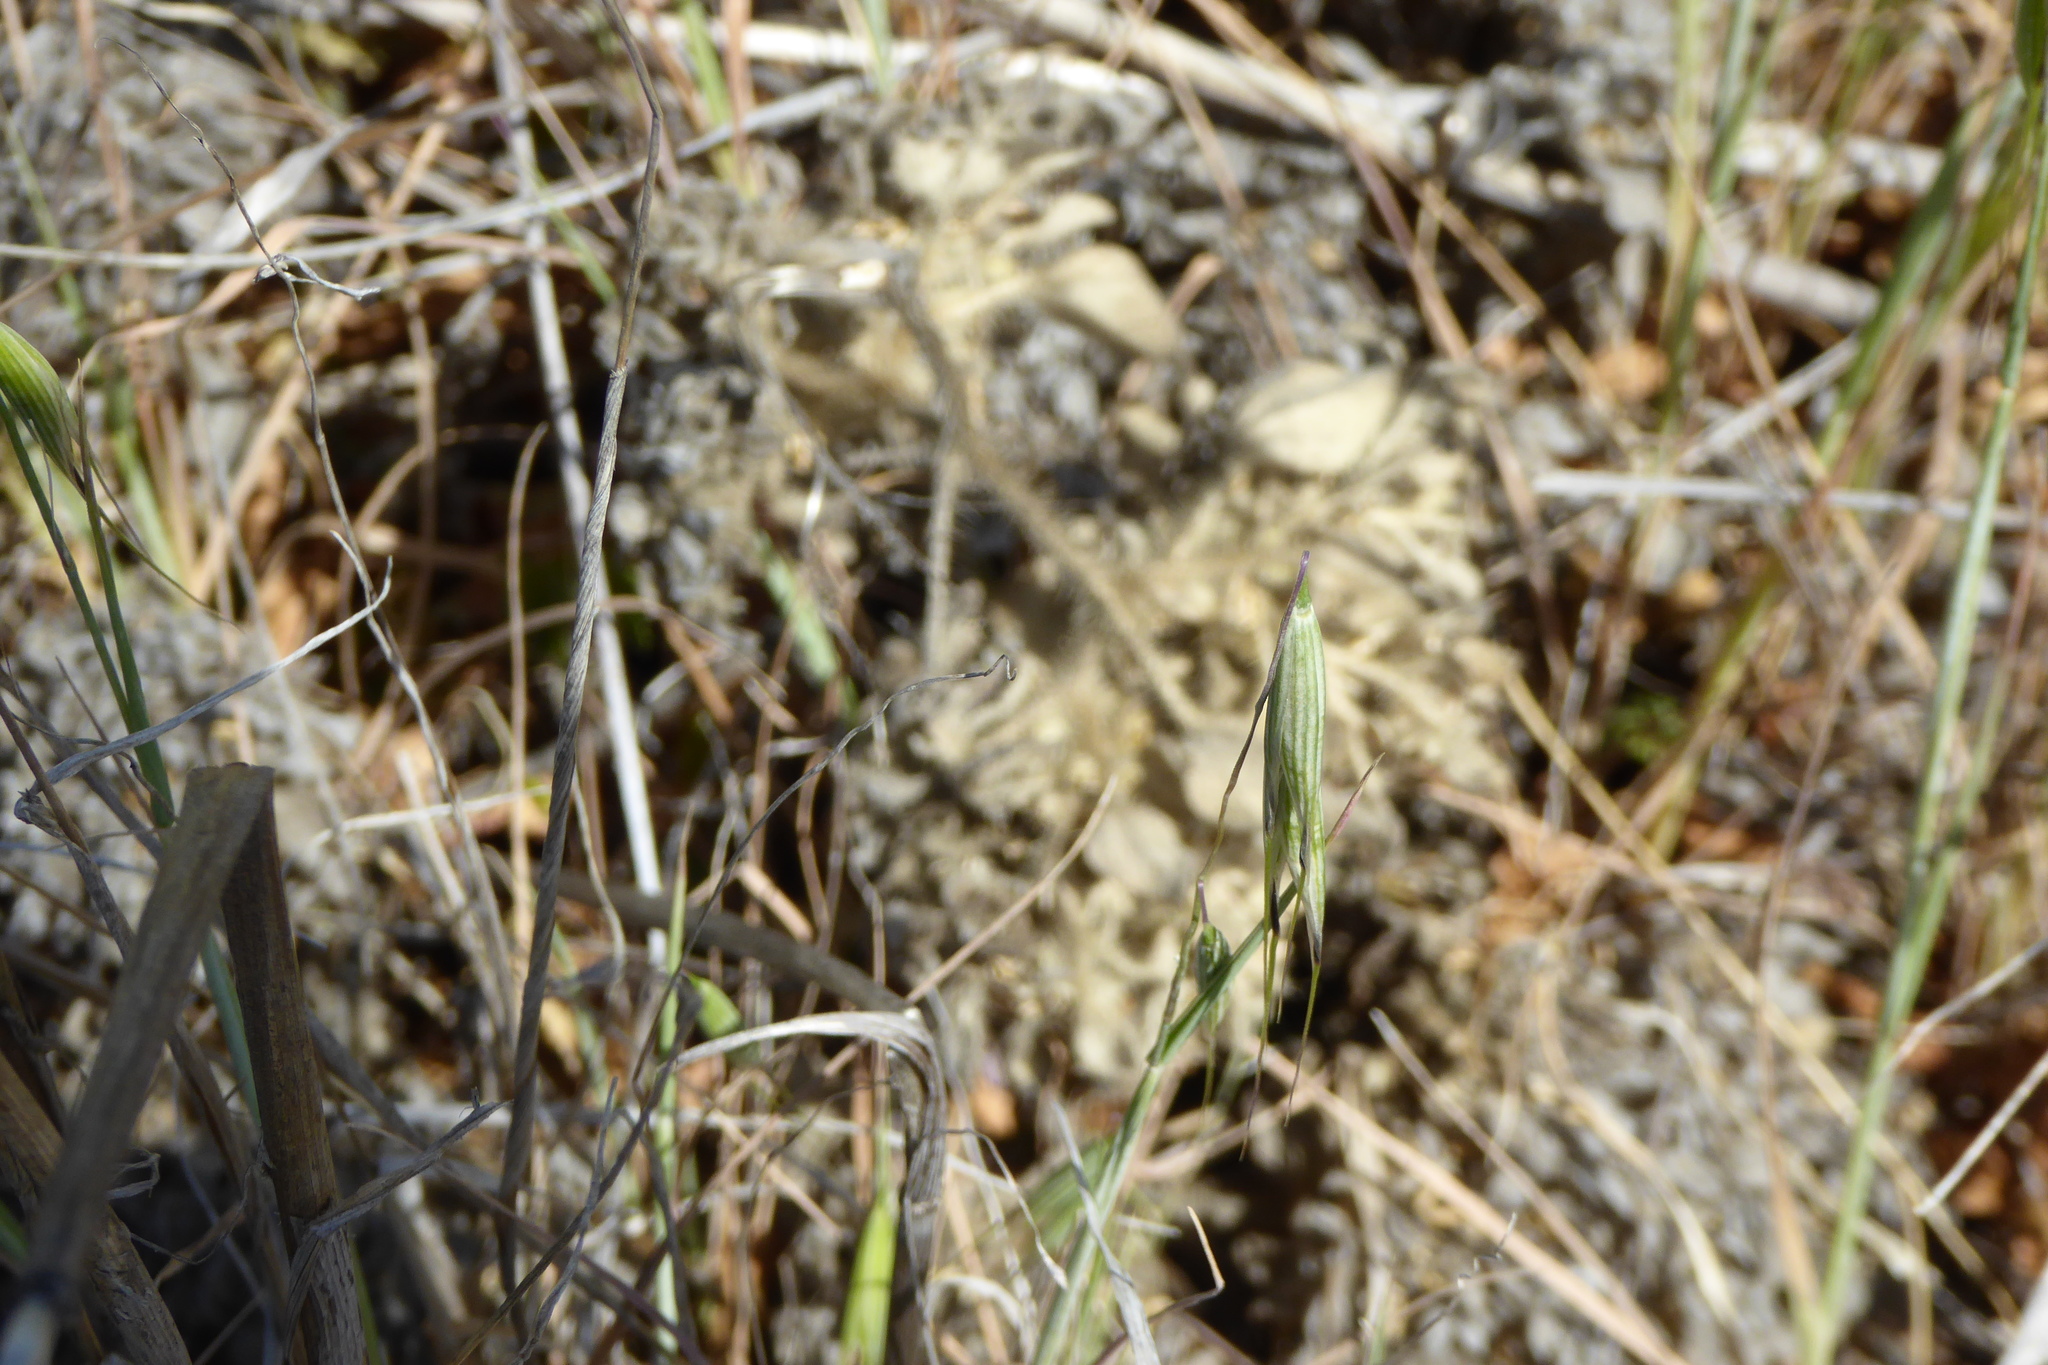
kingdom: Plantae
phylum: Tracheophyta
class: Magnoliopsida
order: Malpighiales
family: Euphorbiaceae
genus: Croton
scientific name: Croton setiger
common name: Dove weed
